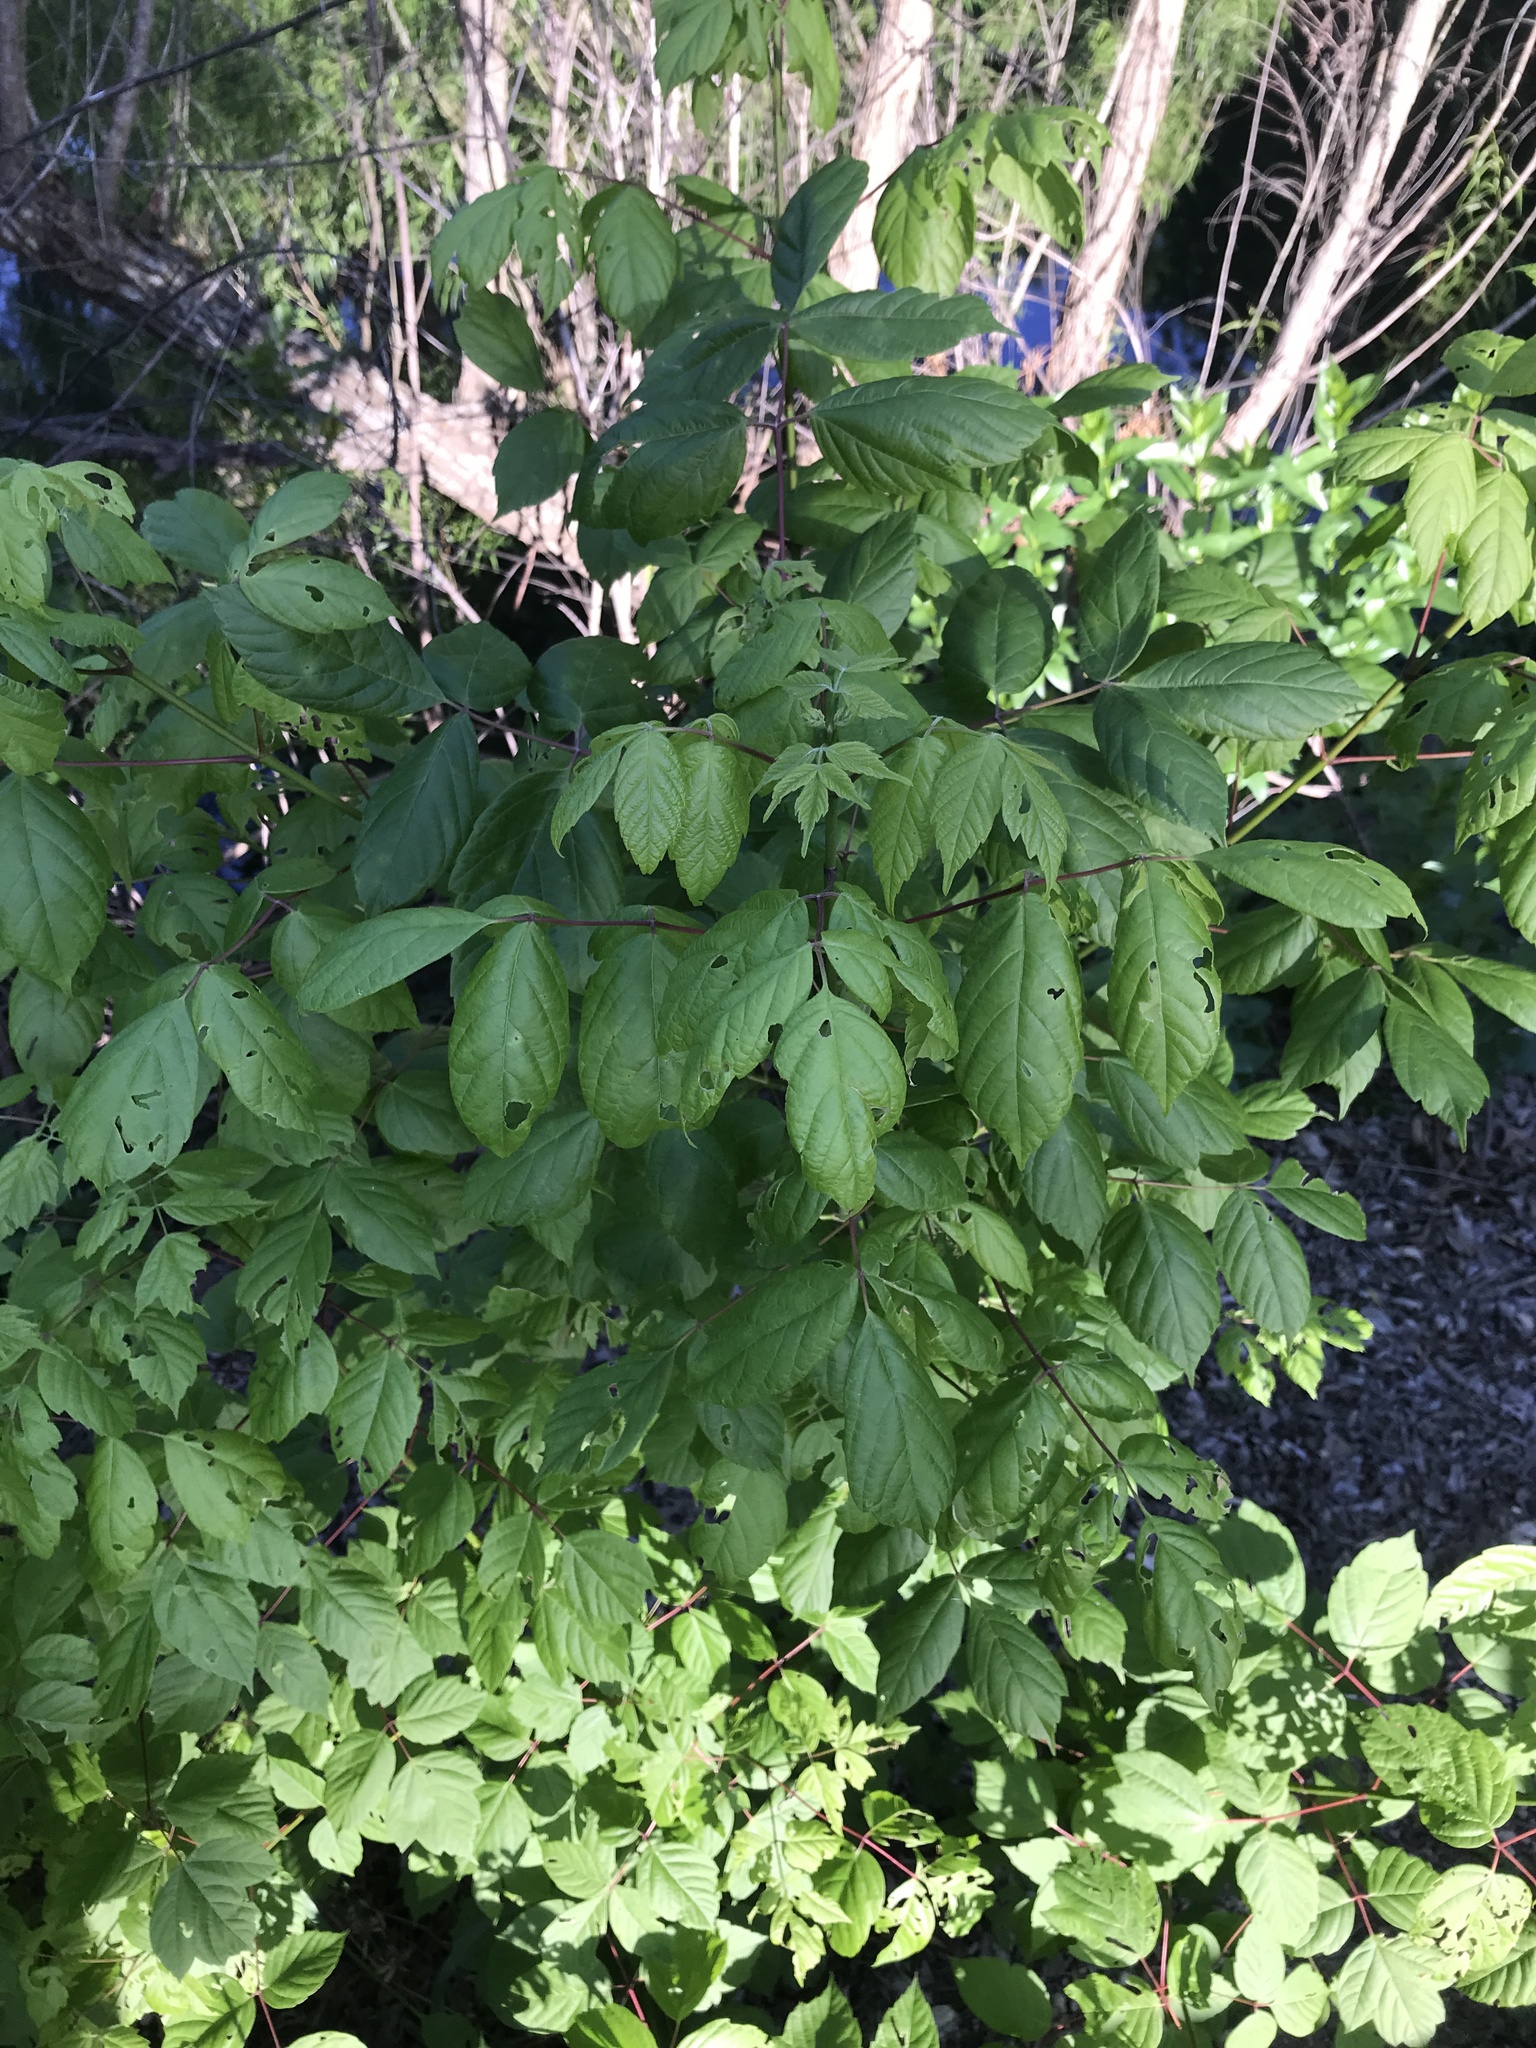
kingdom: Plantae
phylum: Tracheophyta
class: Magnoliopsida
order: Sapindales
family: Sapindaceae
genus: Acer
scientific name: Acer negundo
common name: Ashleaf maple
